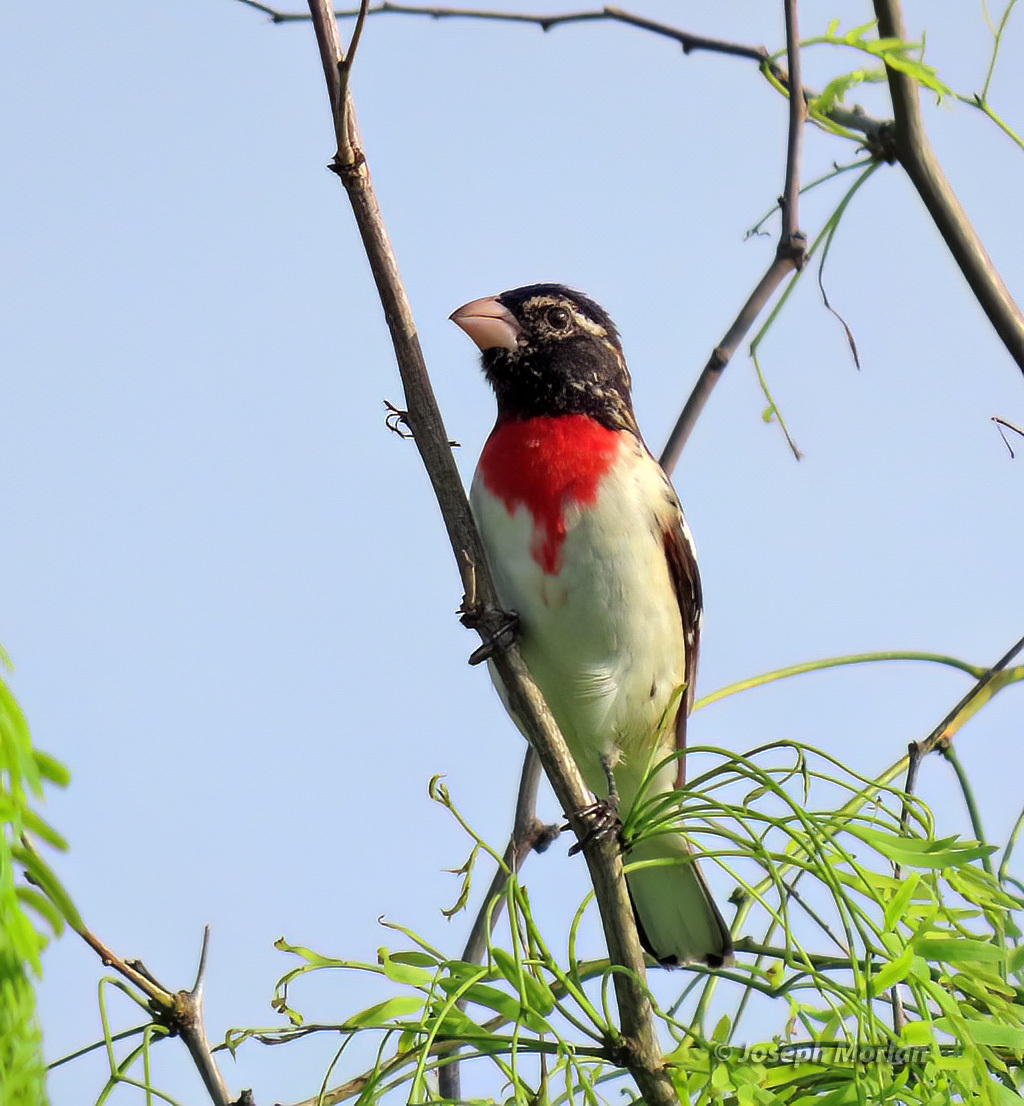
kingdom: Animalia
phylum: Chordata
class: Aves
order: Passeriformes
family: Cardinalidae
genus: Pheucticus
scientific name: Pheucticus ludovicianus
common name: Rose-breasted grosbeak
